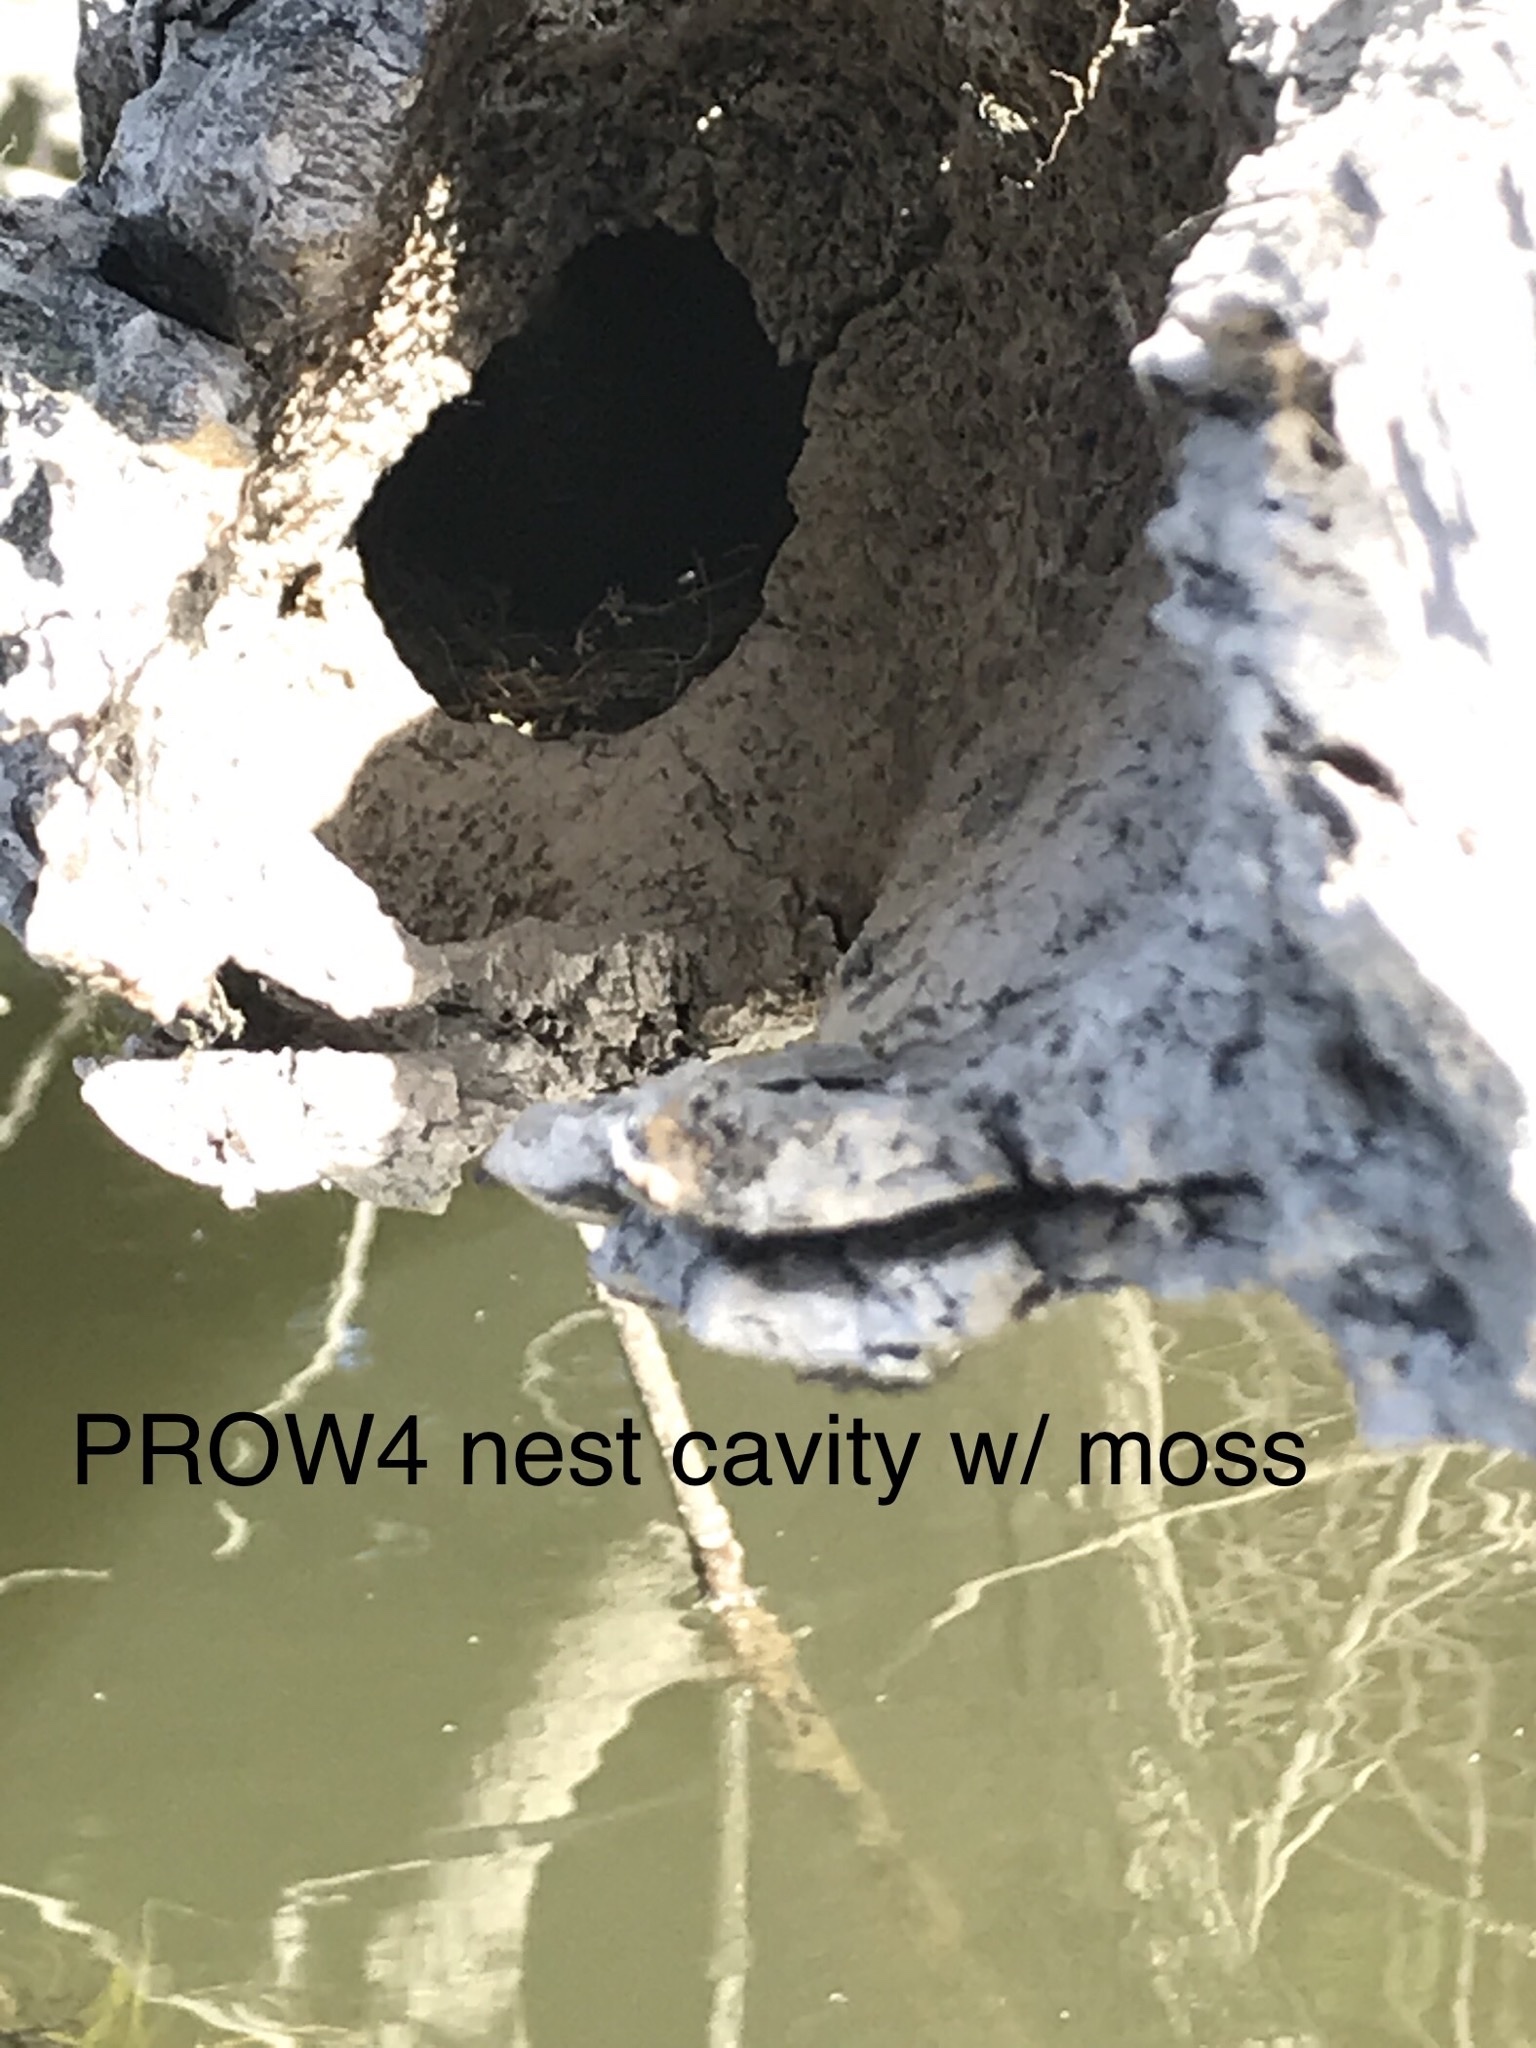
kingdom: Animalia
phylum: Chordata
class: Aves
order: Passeriformes
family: Parulidae
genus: Protonotaria
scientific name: Protonotaria citrea
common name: Prothonotary warbler
